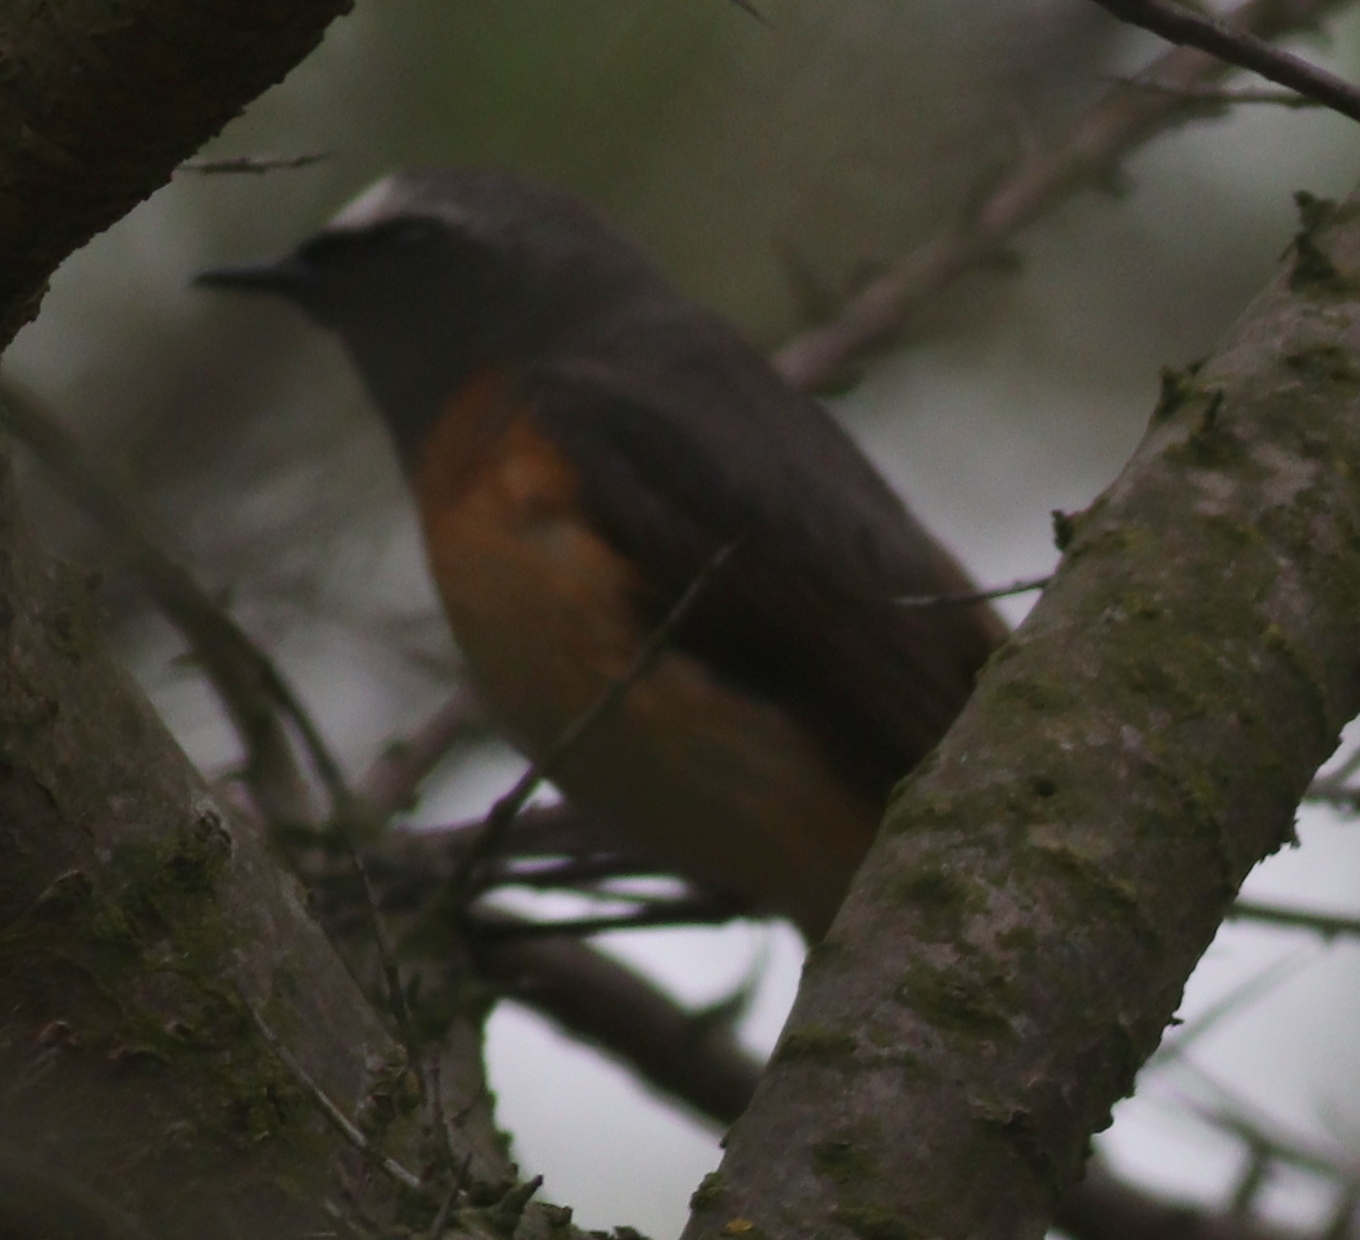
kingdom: Animalia
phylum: Chordata
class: Aves
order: Passeriformes
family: Muscicapidae
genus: Phoenicurus
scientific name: Phoenicurus phoenicurus
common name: Common redstart
